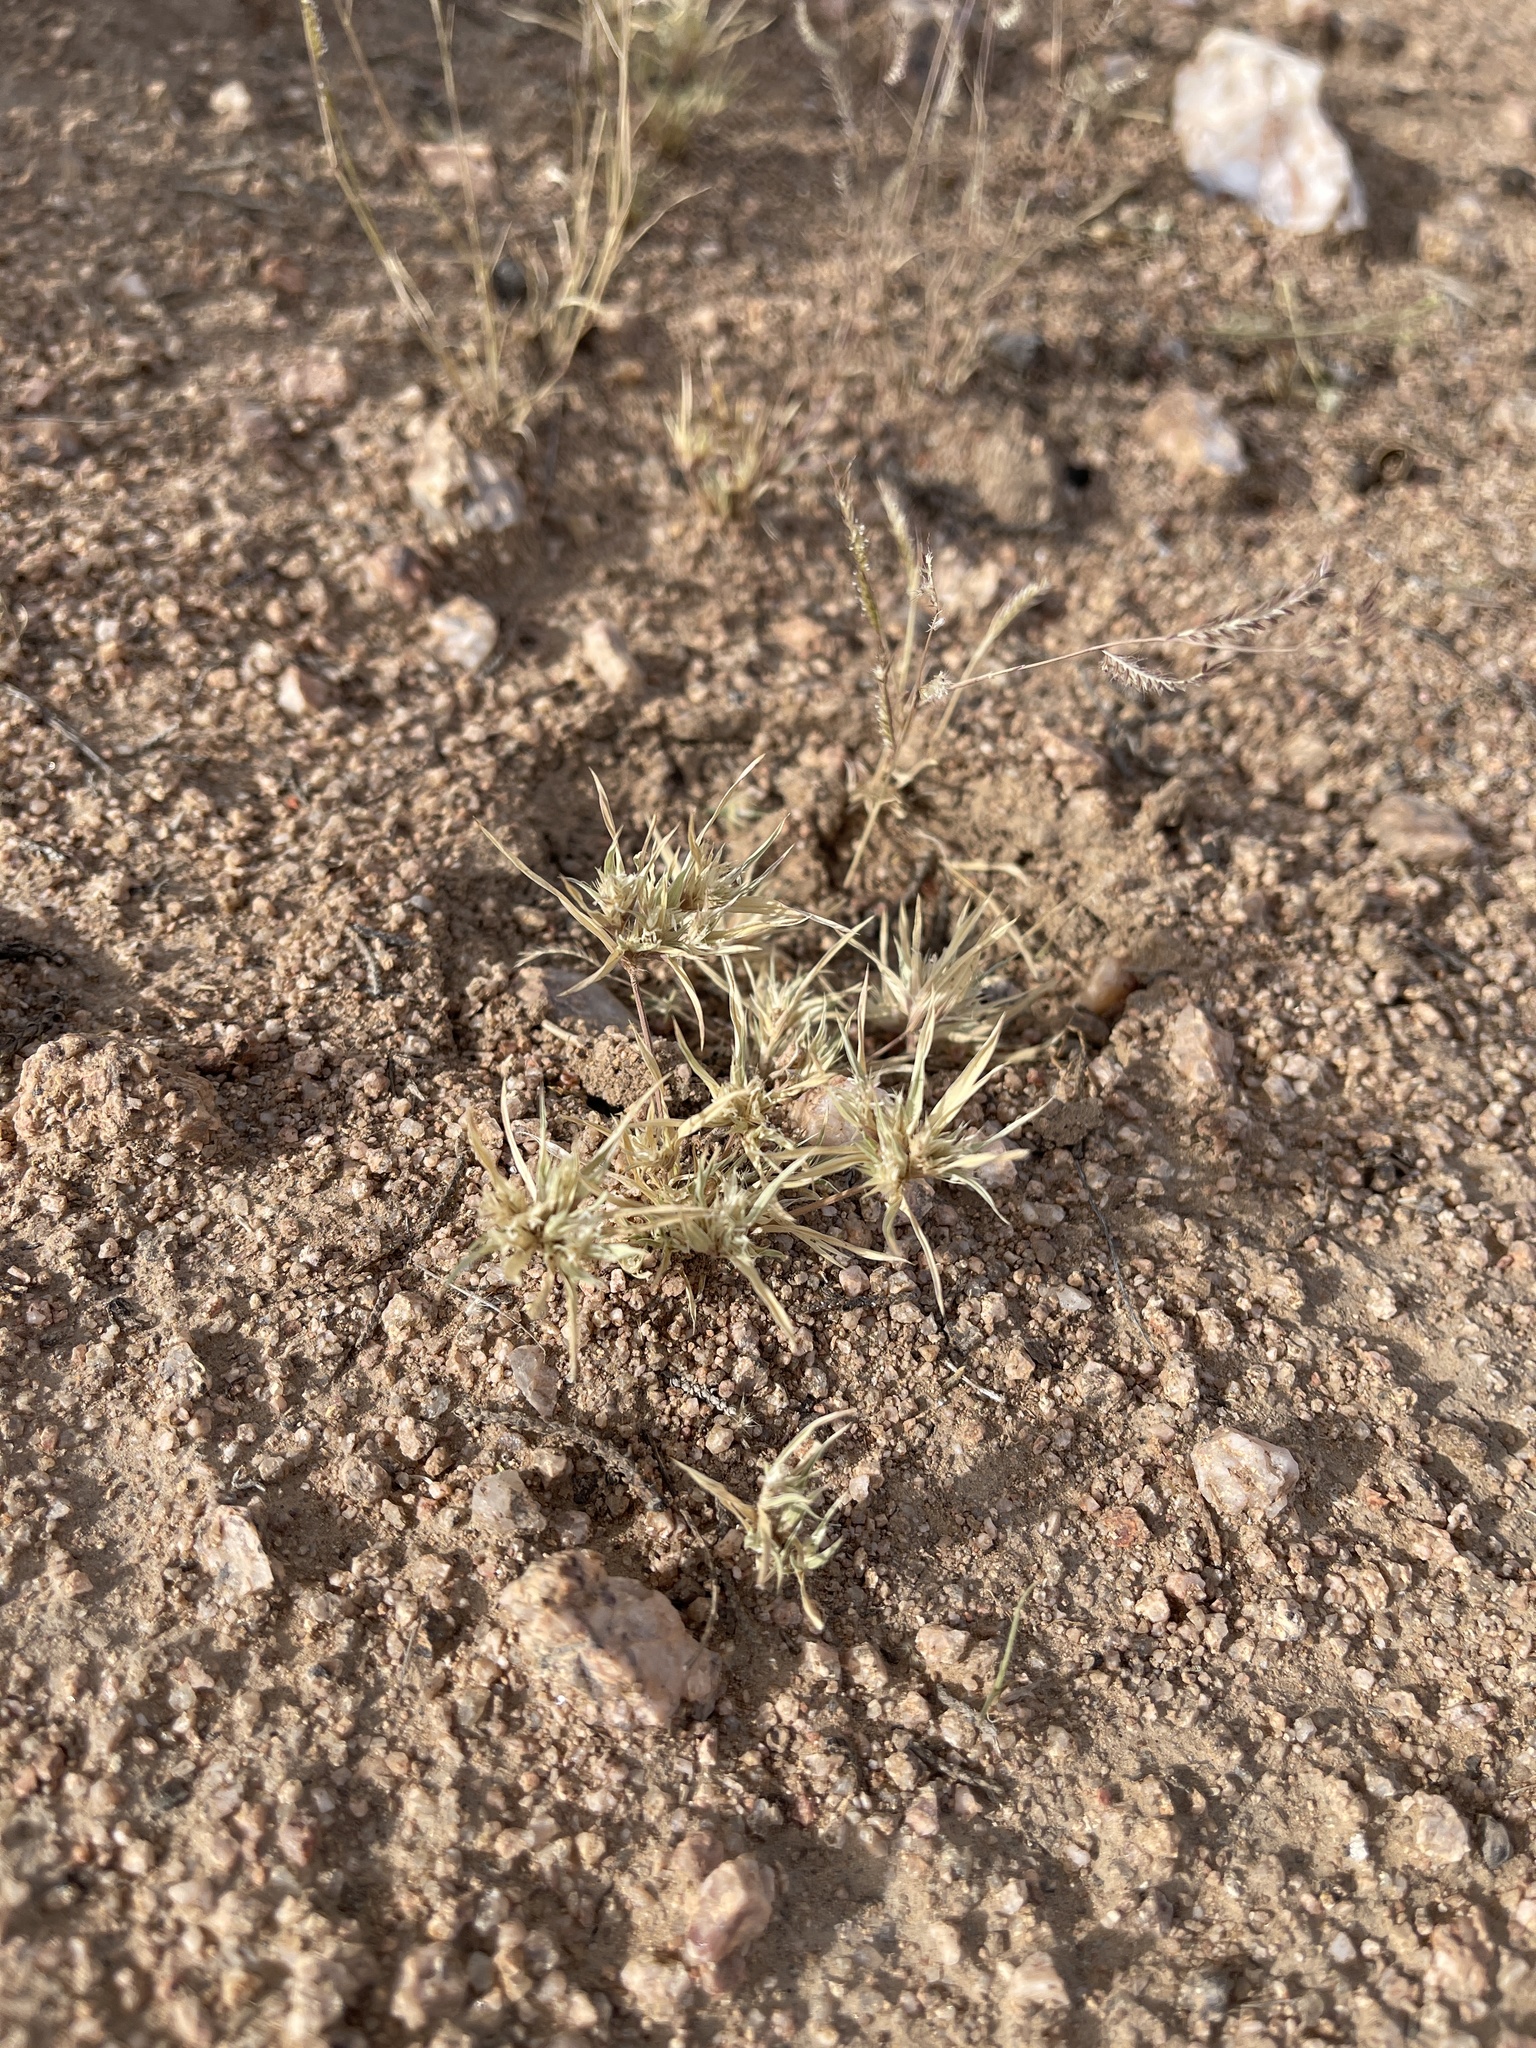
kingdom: Plantae
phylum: Tracheophyta
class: Liliopsida
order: Poales
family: Poaceae
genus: Dasyochloa
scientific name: Dasyochloa pulchella
